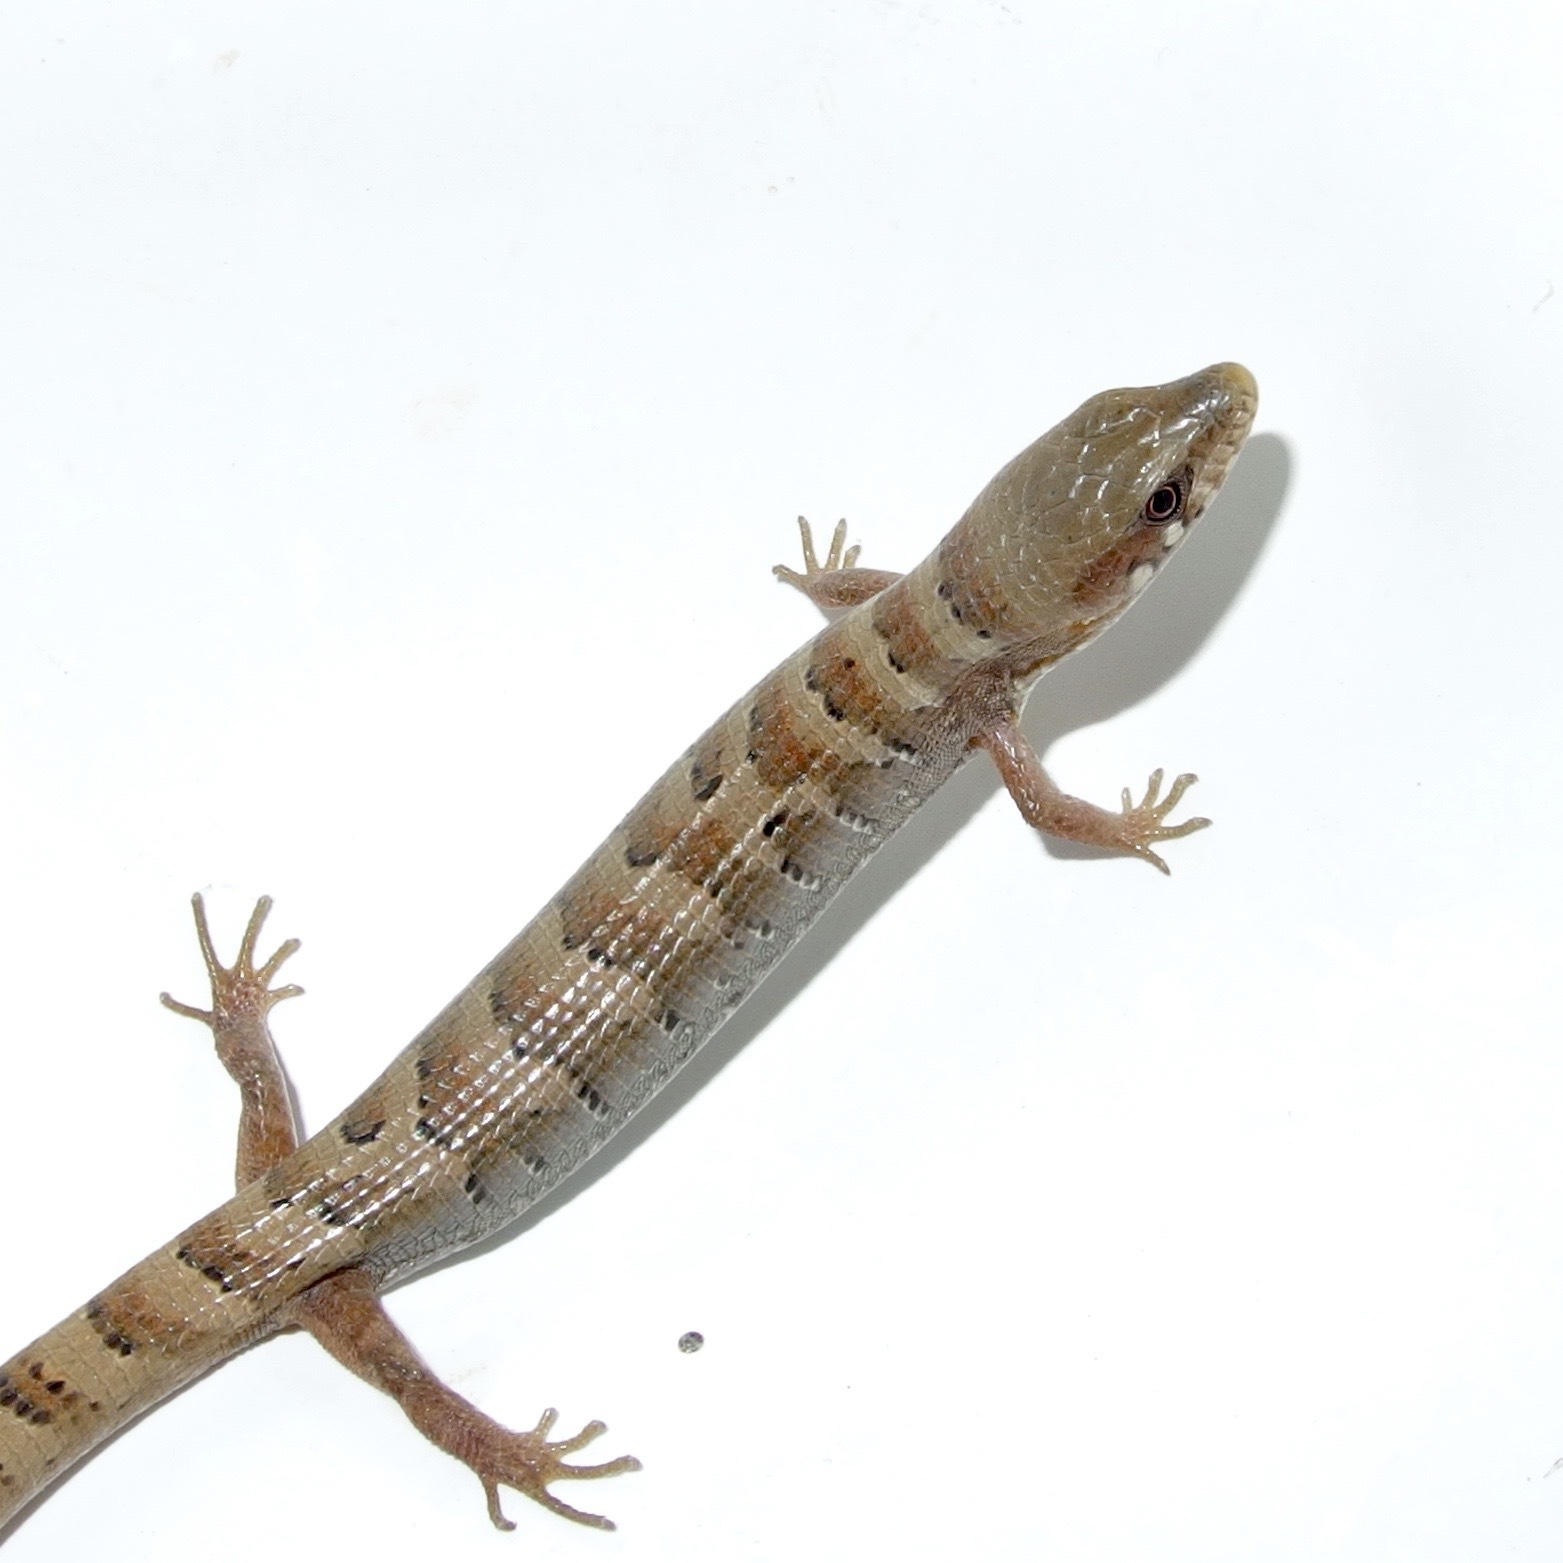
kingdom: Animalia
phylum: Chordata
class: Squamata
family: Anguidae
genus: Elgaria
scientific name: Elgaria kingii
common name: Madrean alligator lizard
